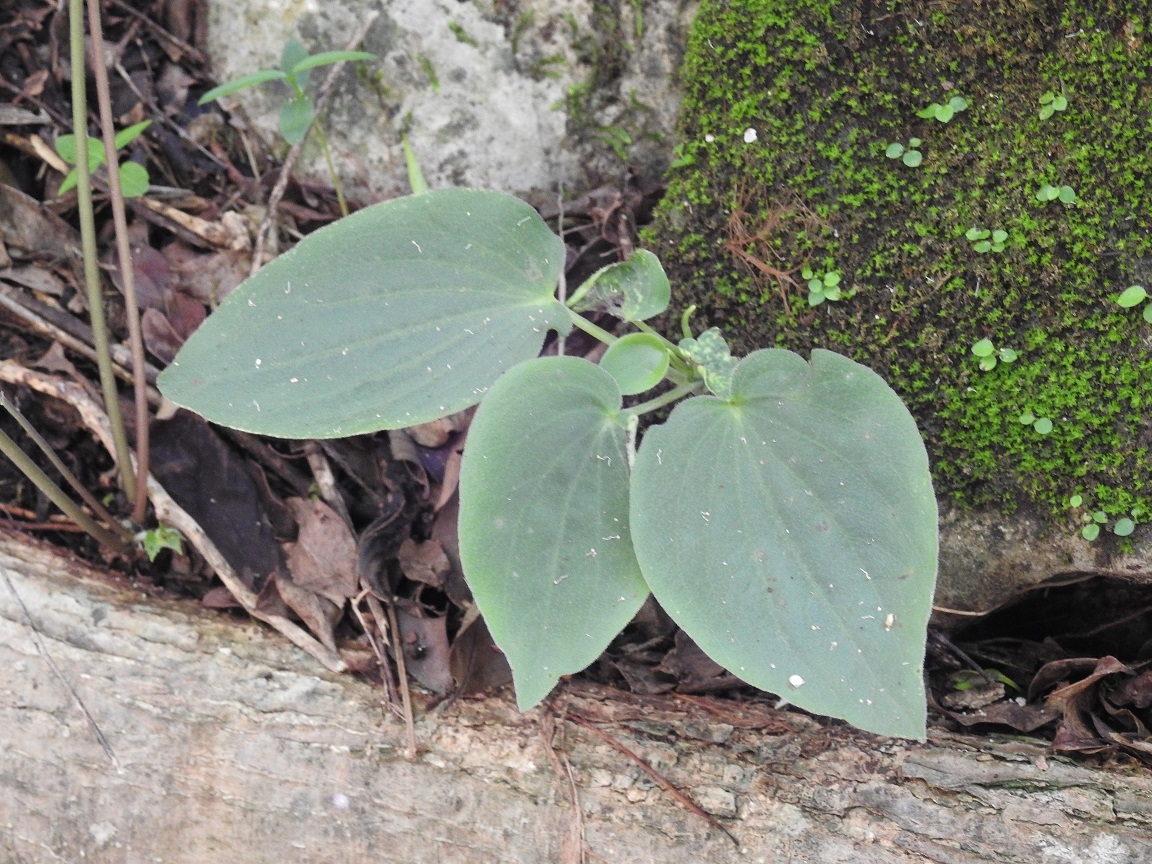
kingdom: Plantae
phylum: Tracheophyta
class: Magnoliopsida
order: Piperales
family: Piperaceae
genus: Peperomia
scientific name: Peperomia lanceolatopeltata
